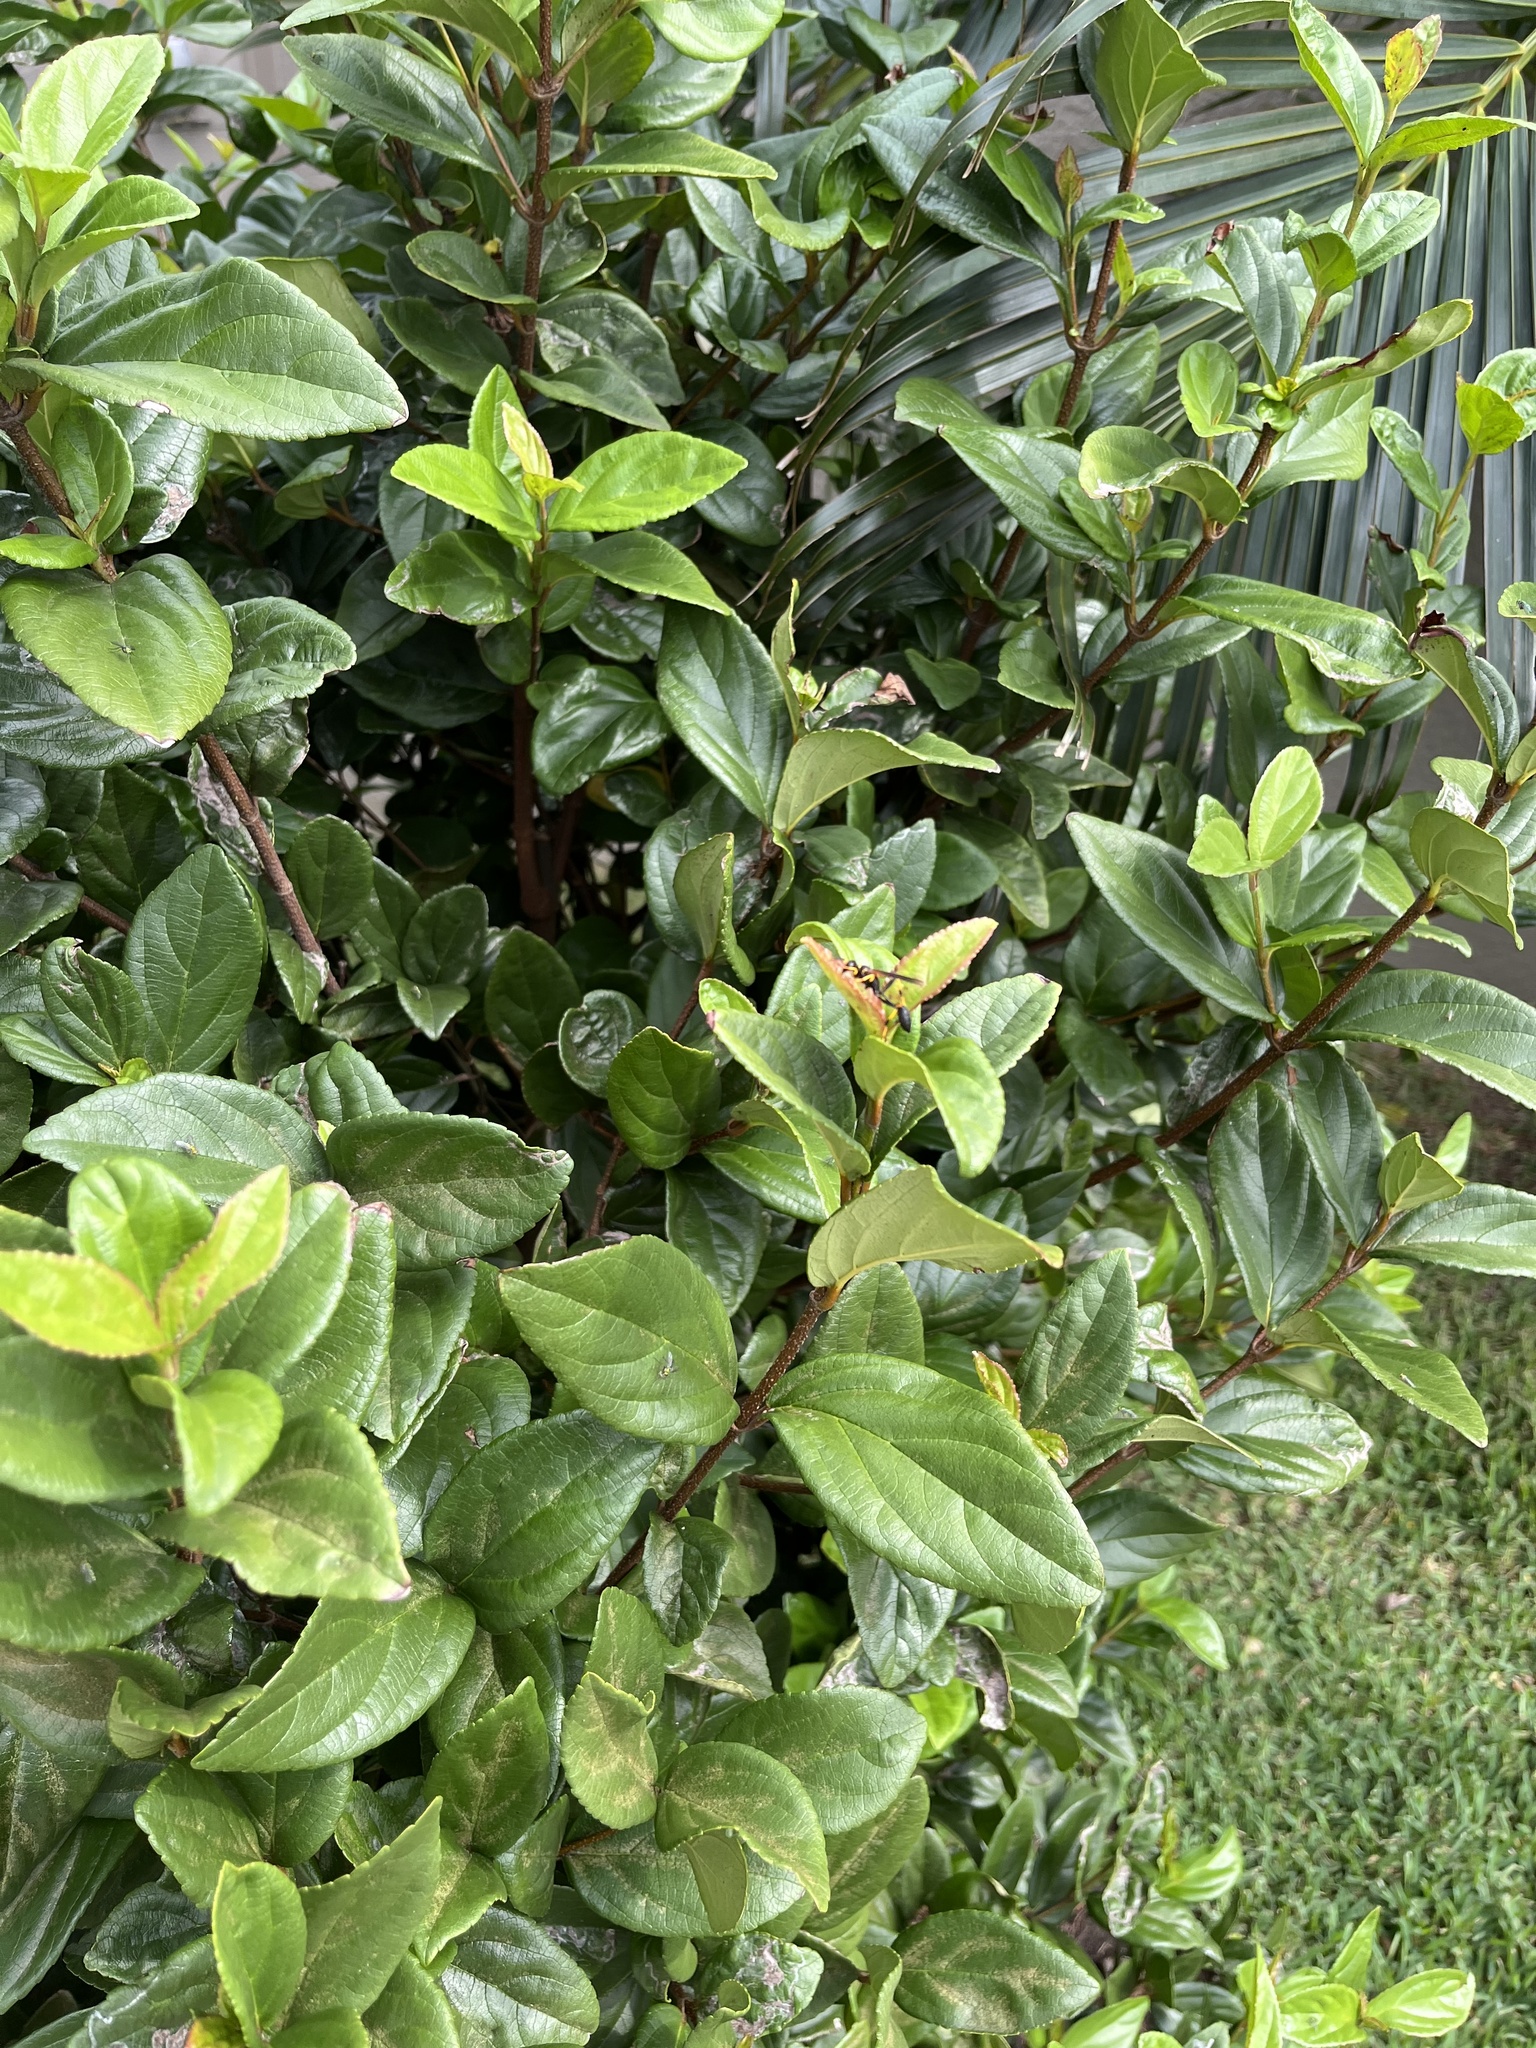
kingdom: Animalia
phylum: Arthropoda
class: Insecta
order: Hymenoptera
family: Sphecidae
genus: Sceliphron
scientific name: Sceliphron caementarium
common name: Mud dauber
